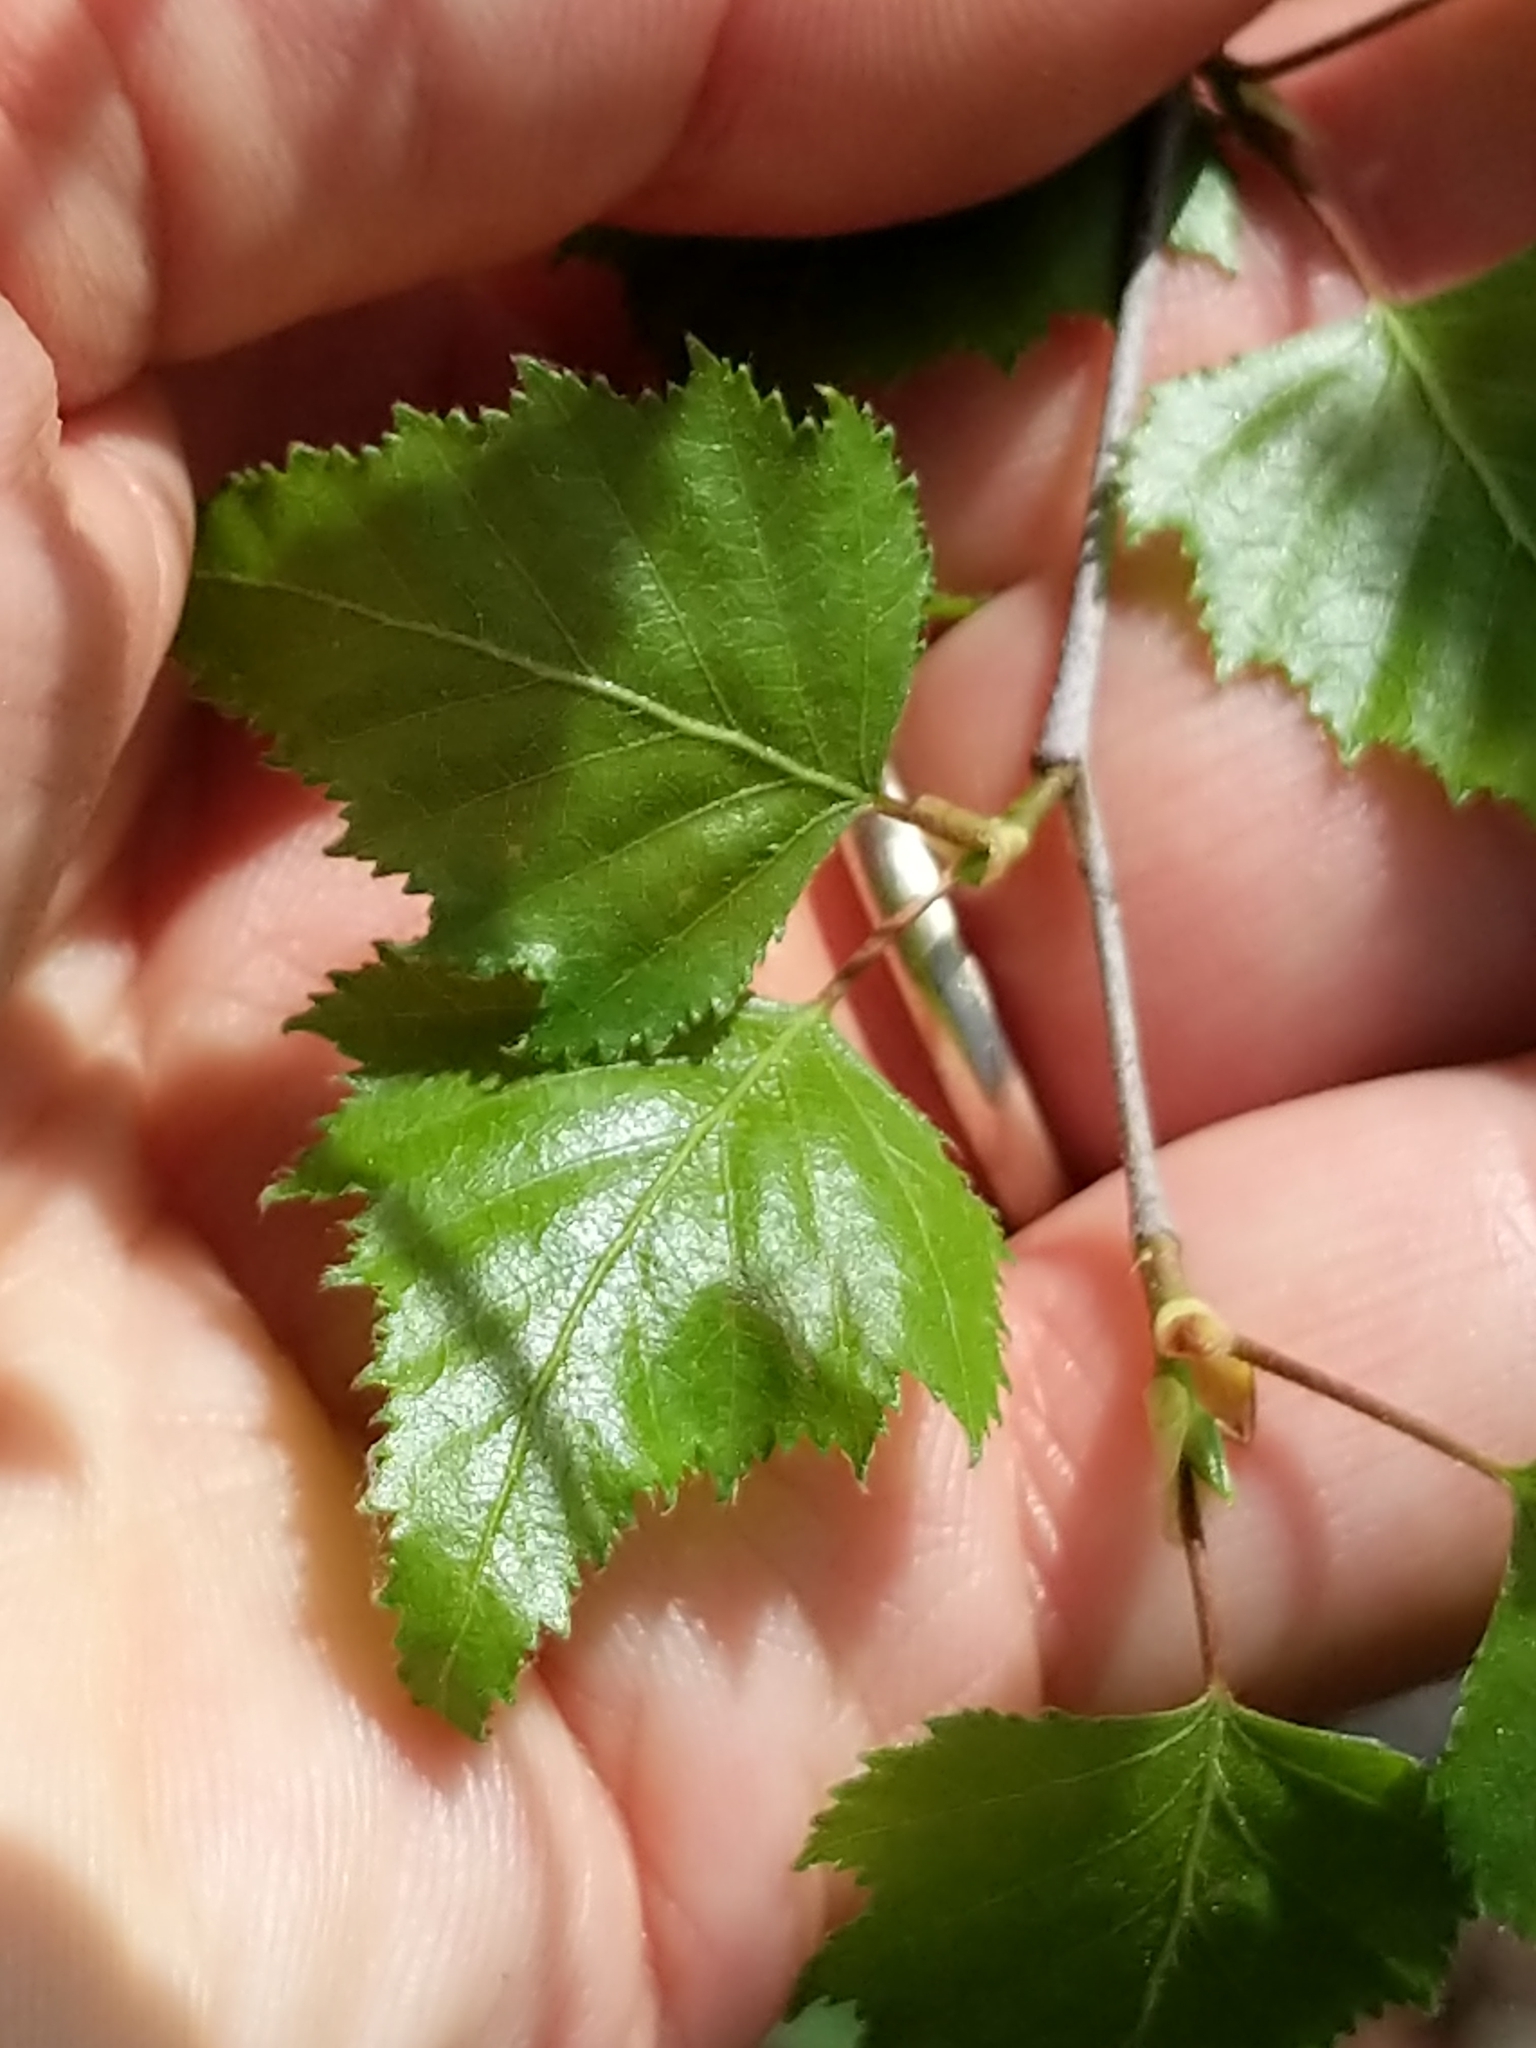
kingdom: Plantae
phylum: Tracheophyta
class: Magnoliopsida
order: Fagales
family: Betulaceae
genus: Betula
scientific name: Betula populifolia
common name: Fire birch
